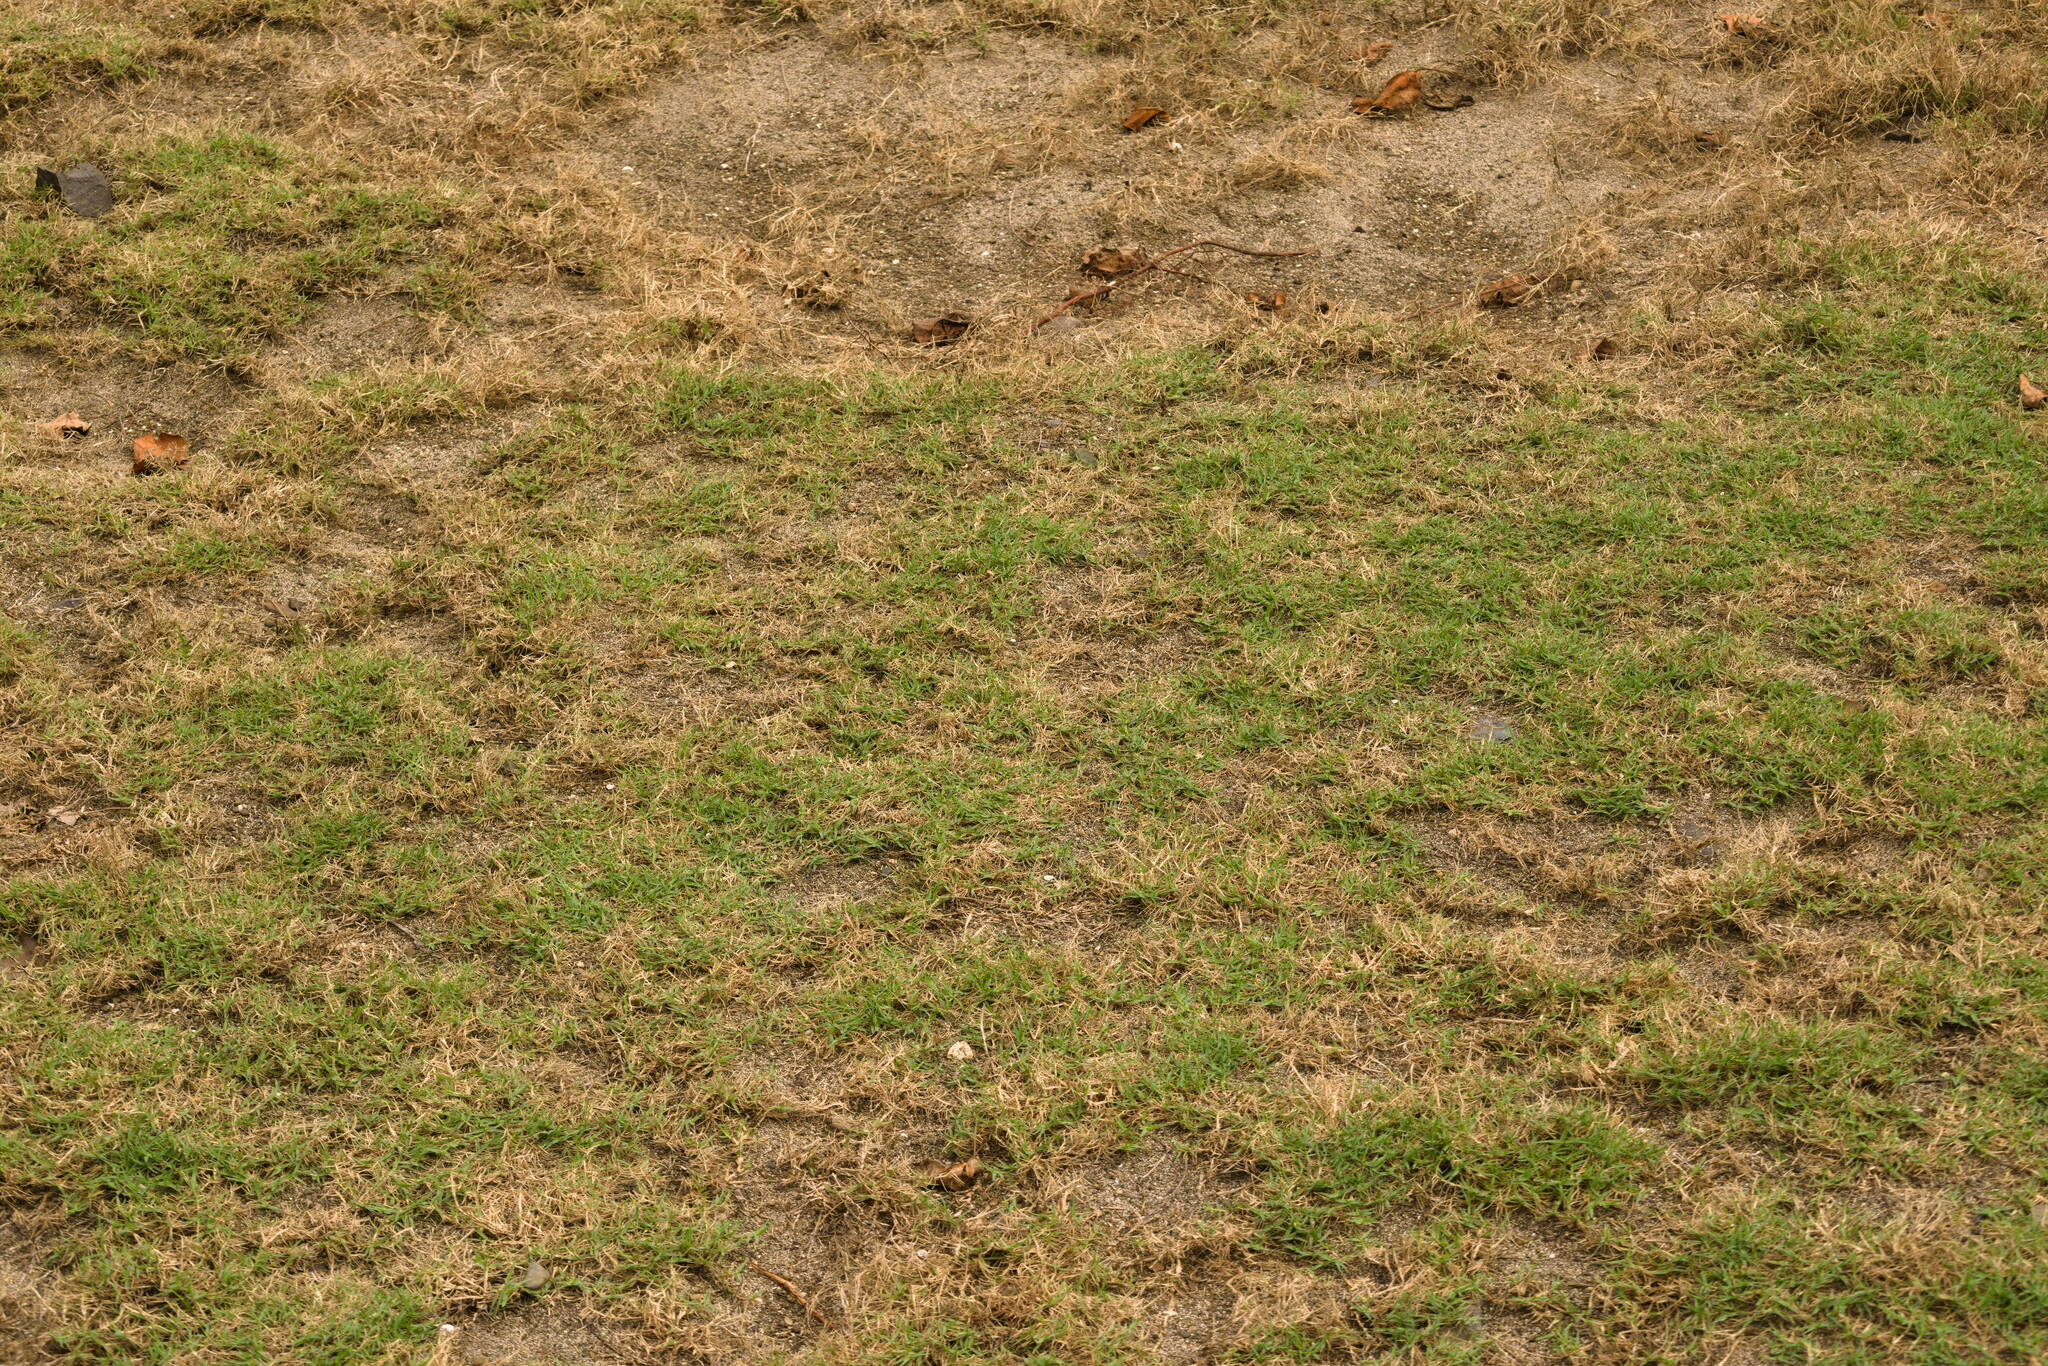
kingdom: Plantae
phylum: Tracheophyta
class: Liliopsida
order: Poales
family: Poaceae
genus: Cynodon
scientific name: Cynodon dactylon
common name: Bermuda grass
